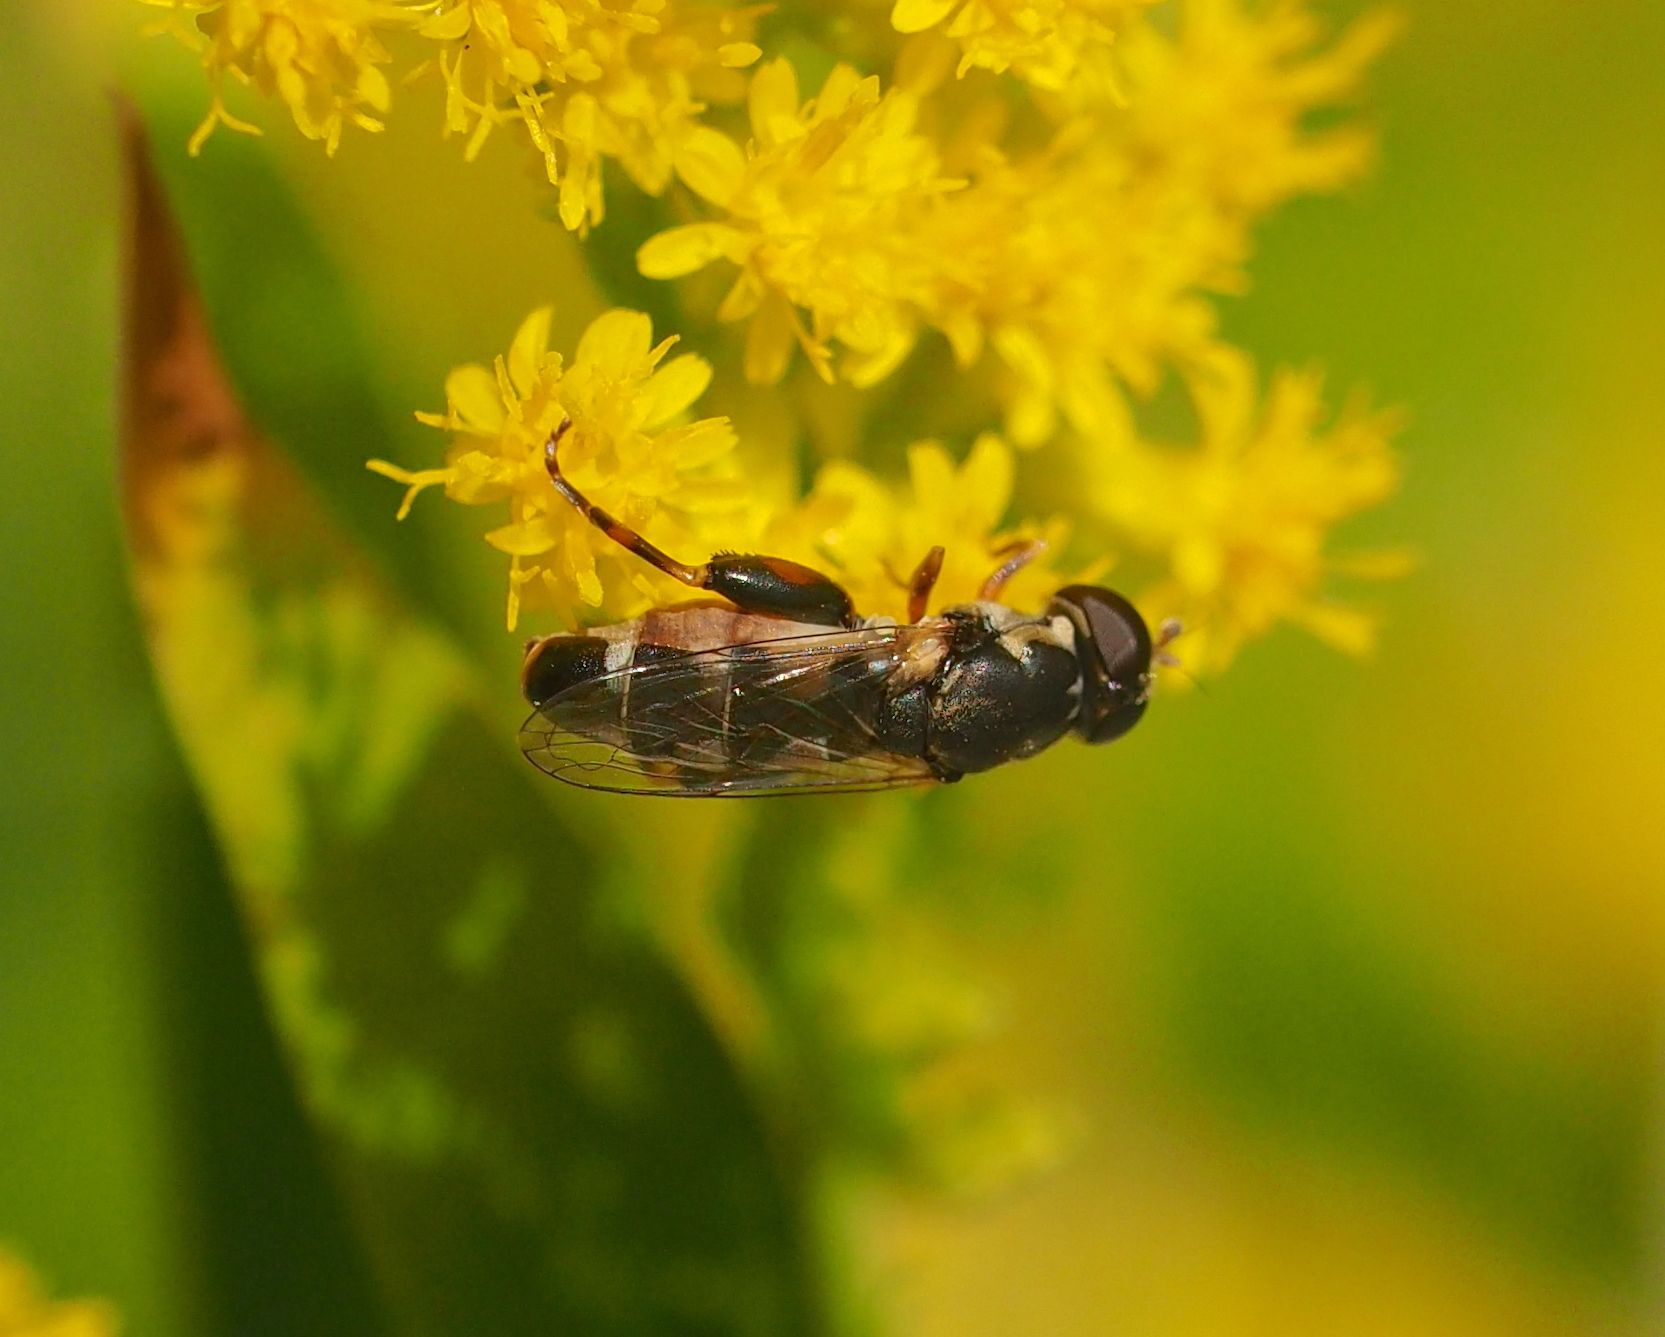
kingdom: Animalia
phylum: Arthropoda
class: Insecta
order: Diptera
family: Syrphidae
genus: Syritta
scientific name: Syritta pipiens
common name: Hover fly
